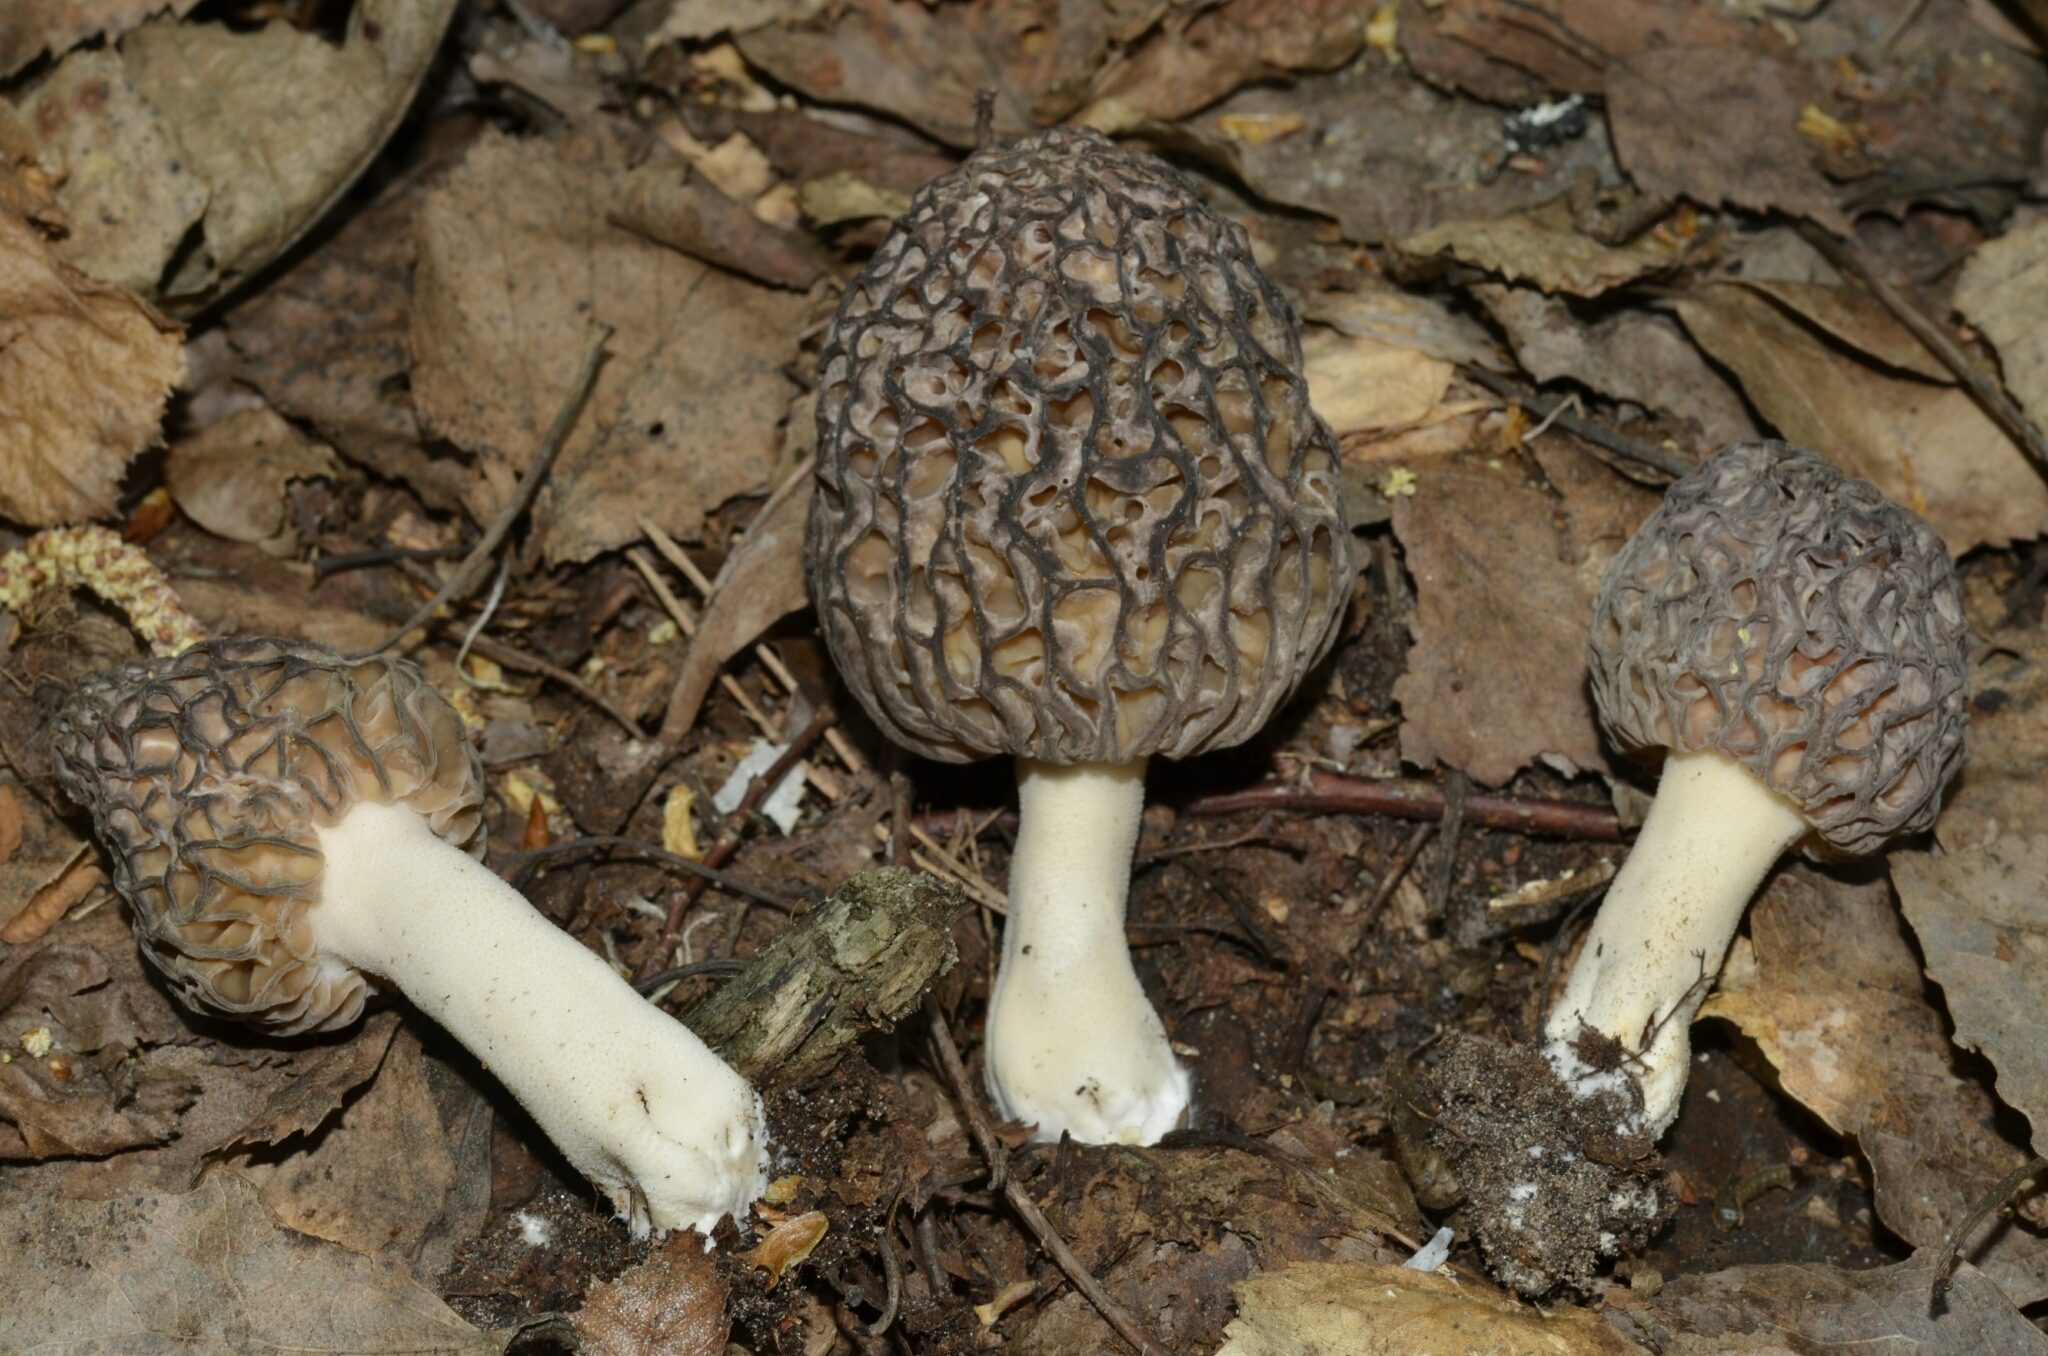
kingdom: Fungi
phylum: Ascomycota
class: Pezizomycetes
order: Pezizales
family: Morchellaceae
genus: Morchella
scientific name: Morchella
